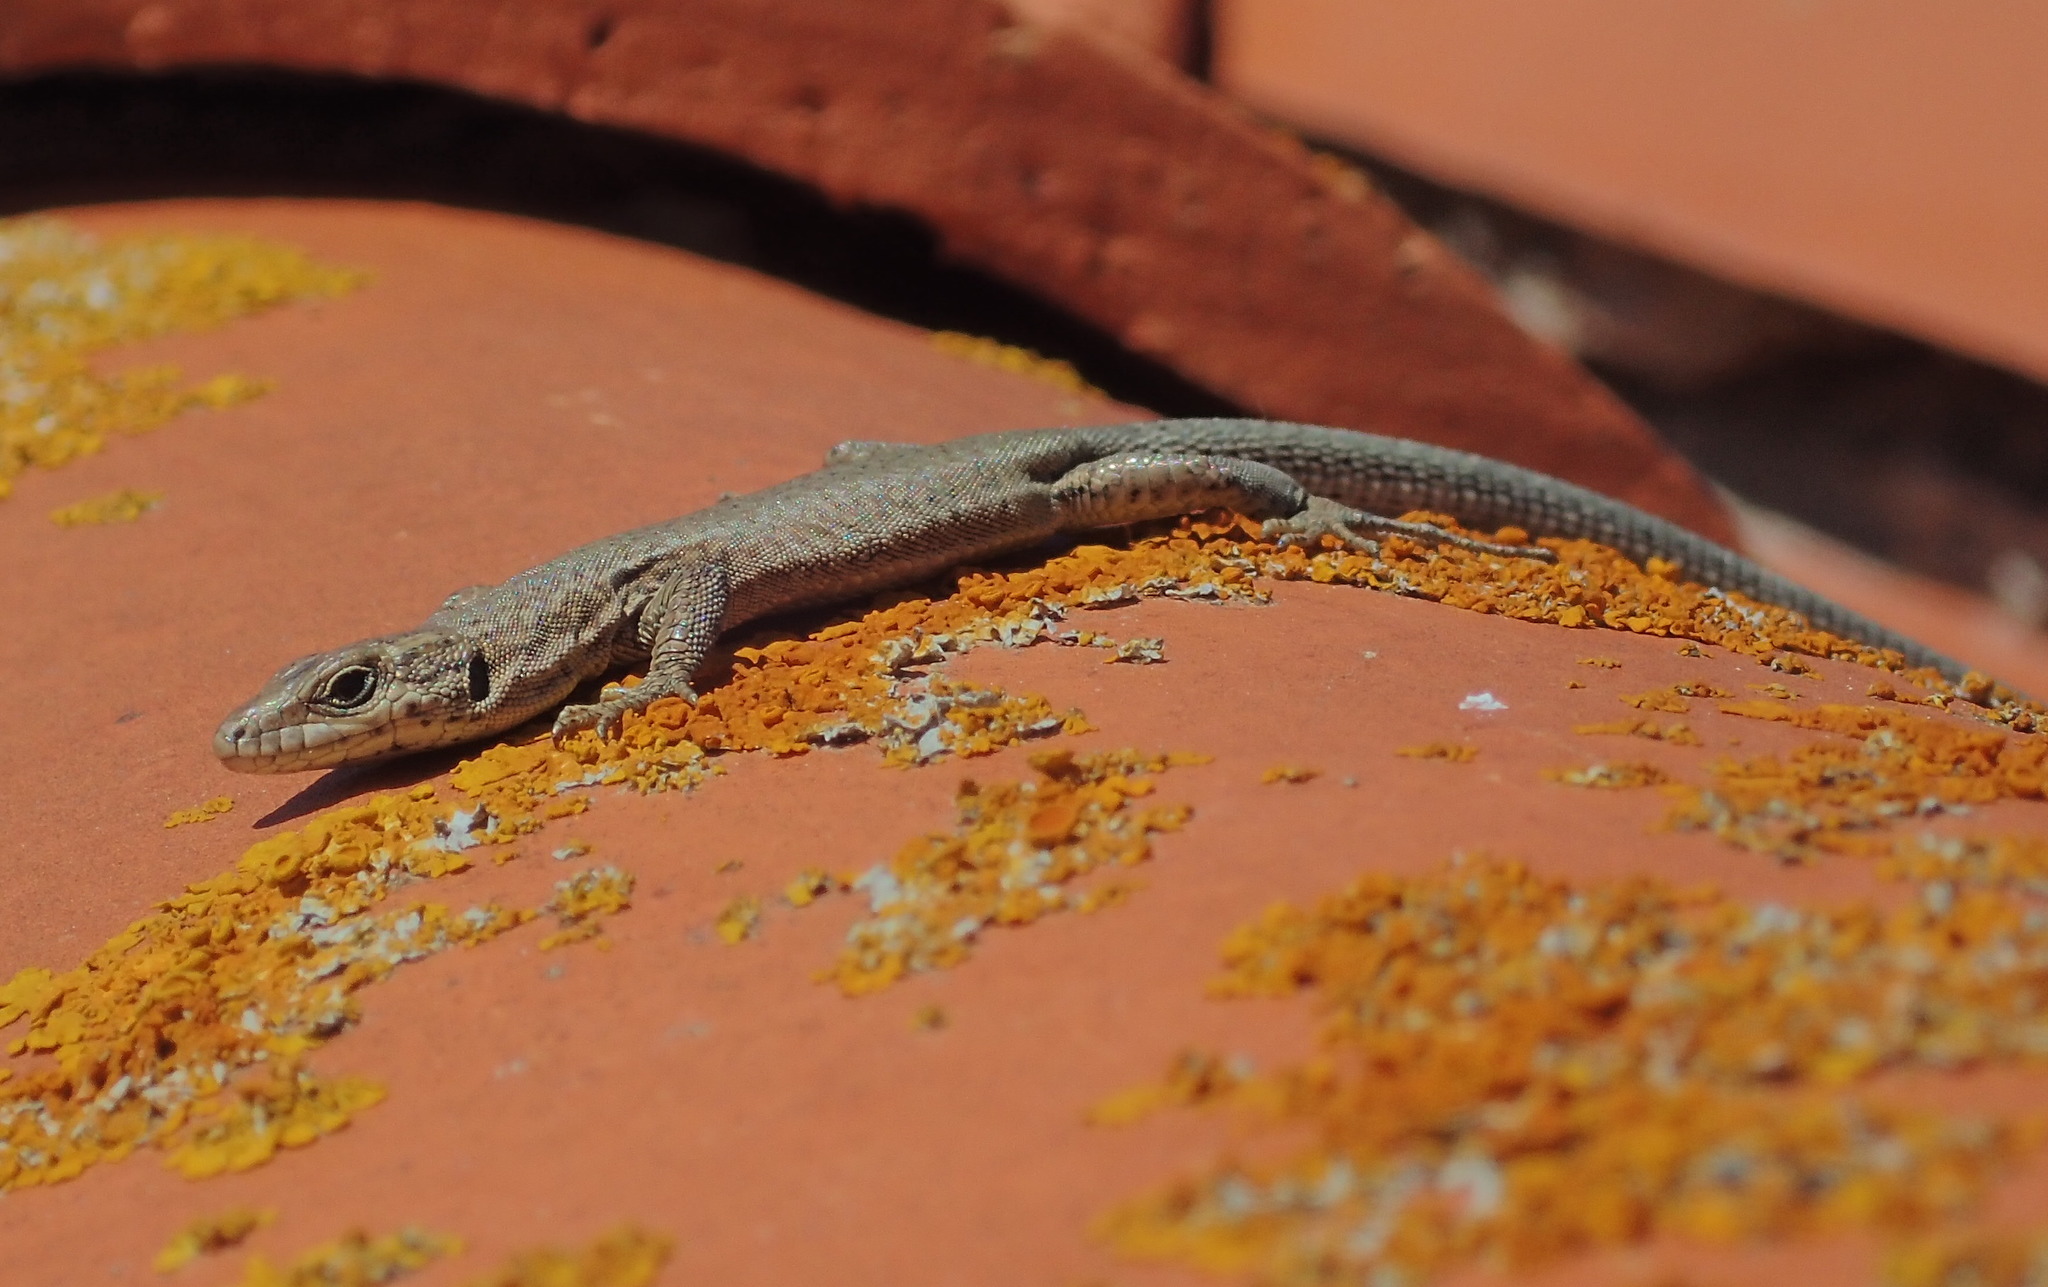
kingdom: Animalia
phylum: Chordata
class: Squamata
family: Lacertidae
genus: Podarcis
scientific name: Podarcis liolepis
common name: Catalonian wall lizard
